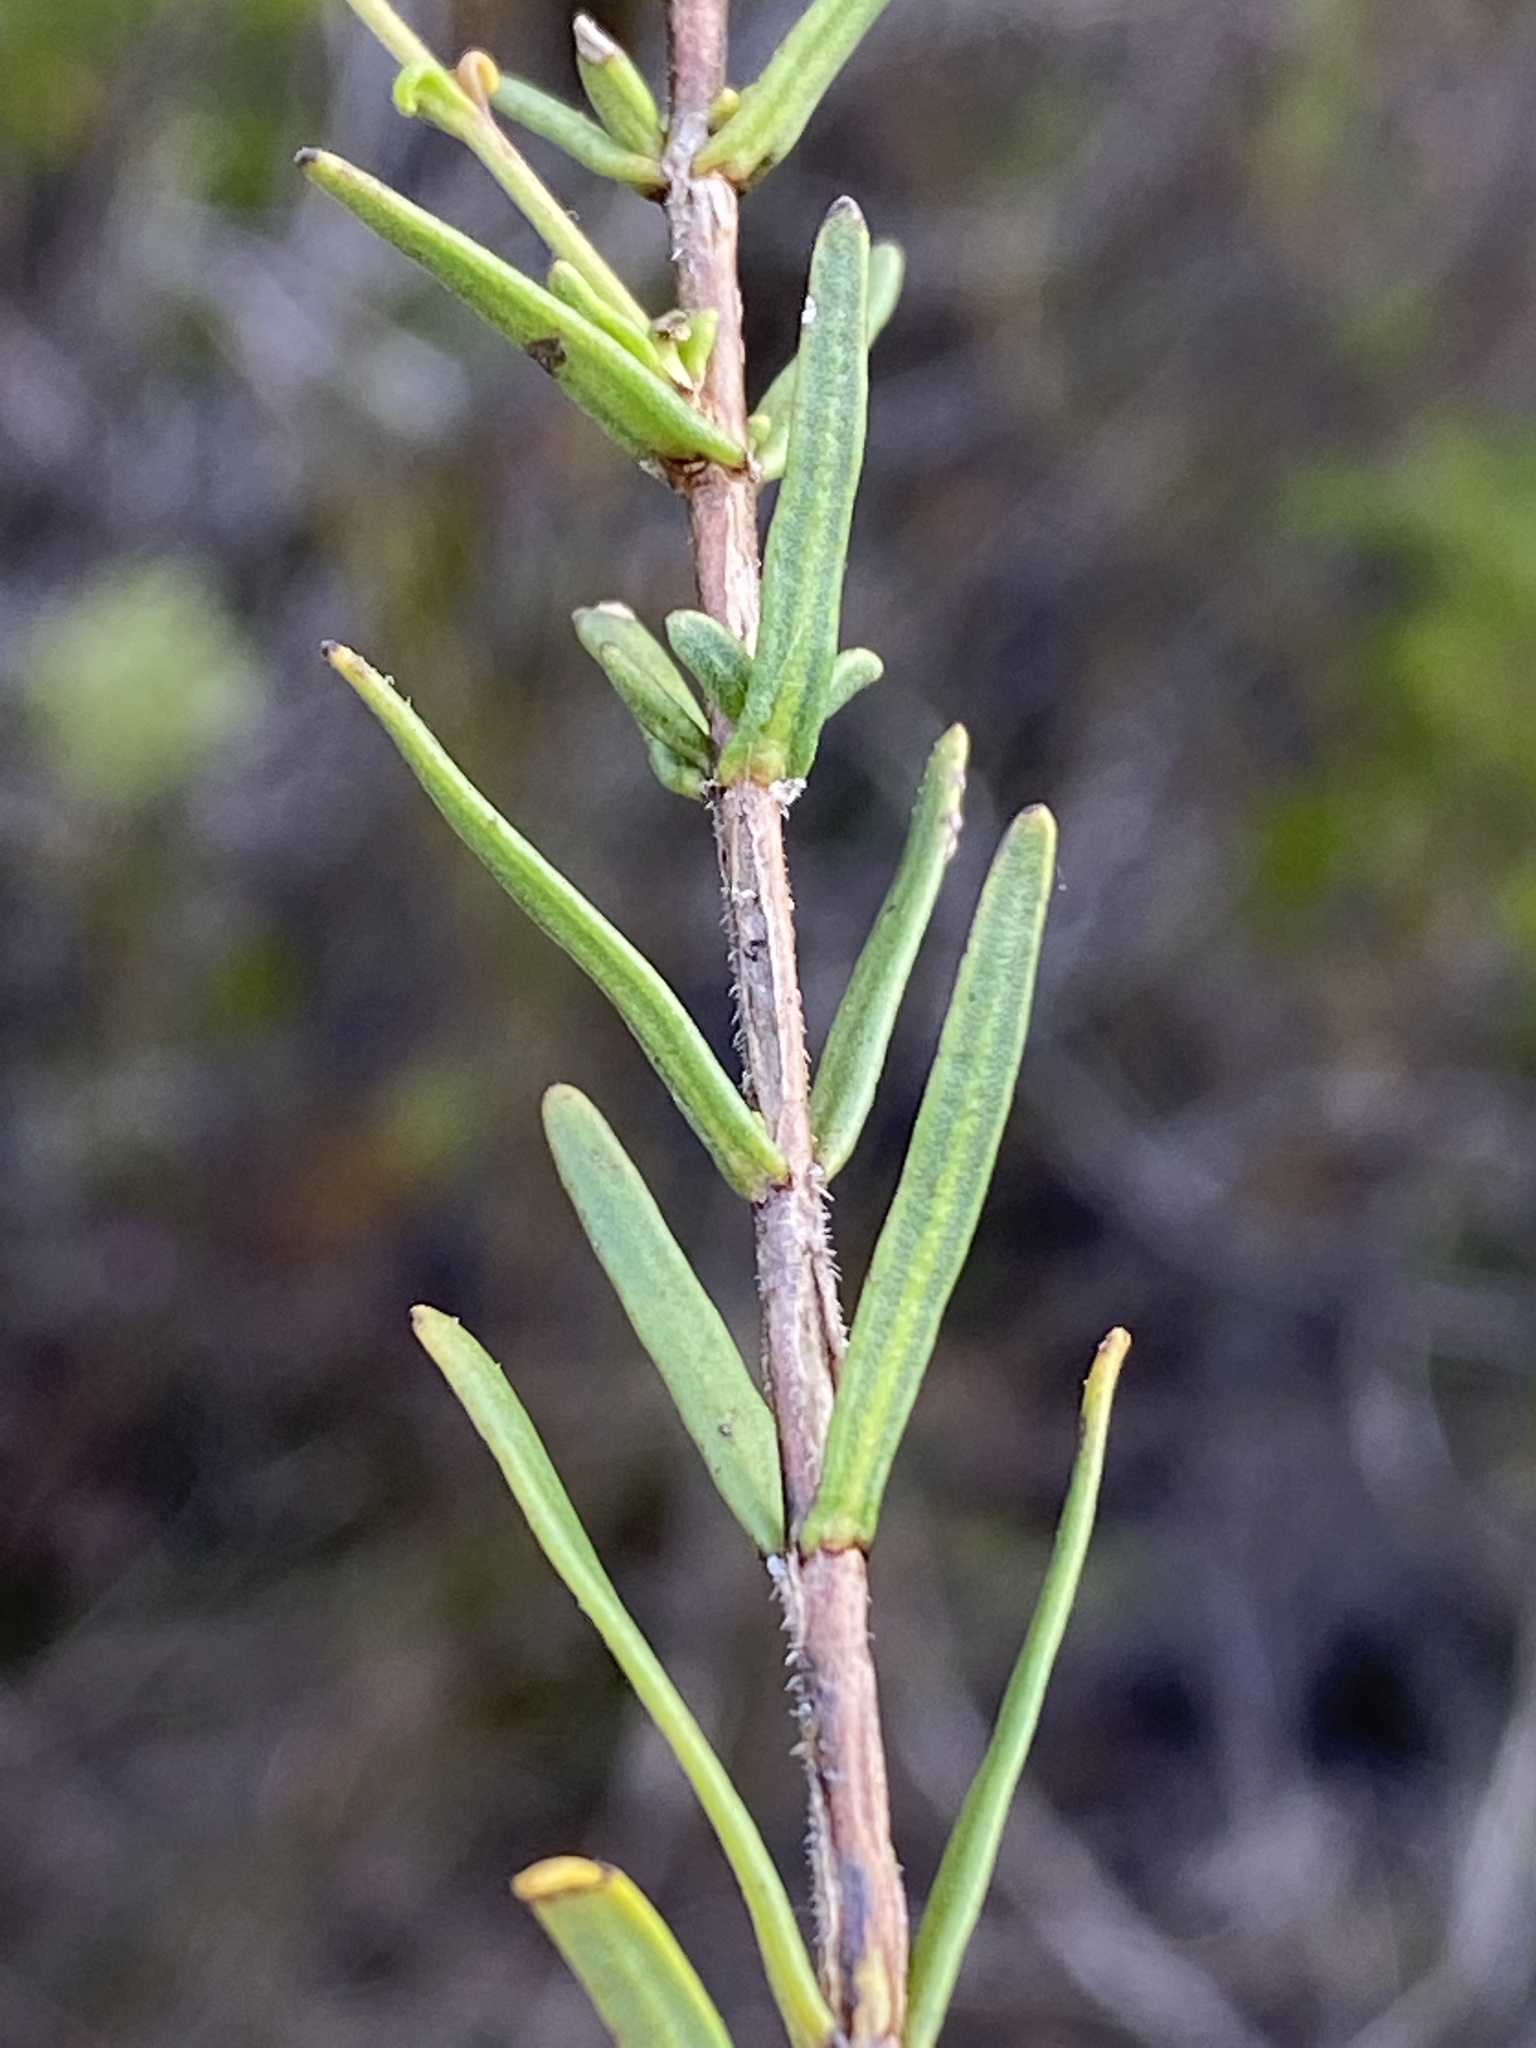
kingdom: Plantae
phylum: Tracheophyta
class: Magnoliopsida
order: Lamiales
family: Scrophulariaceae
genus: Chaenostoma
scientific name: Chaenostoma placidum
